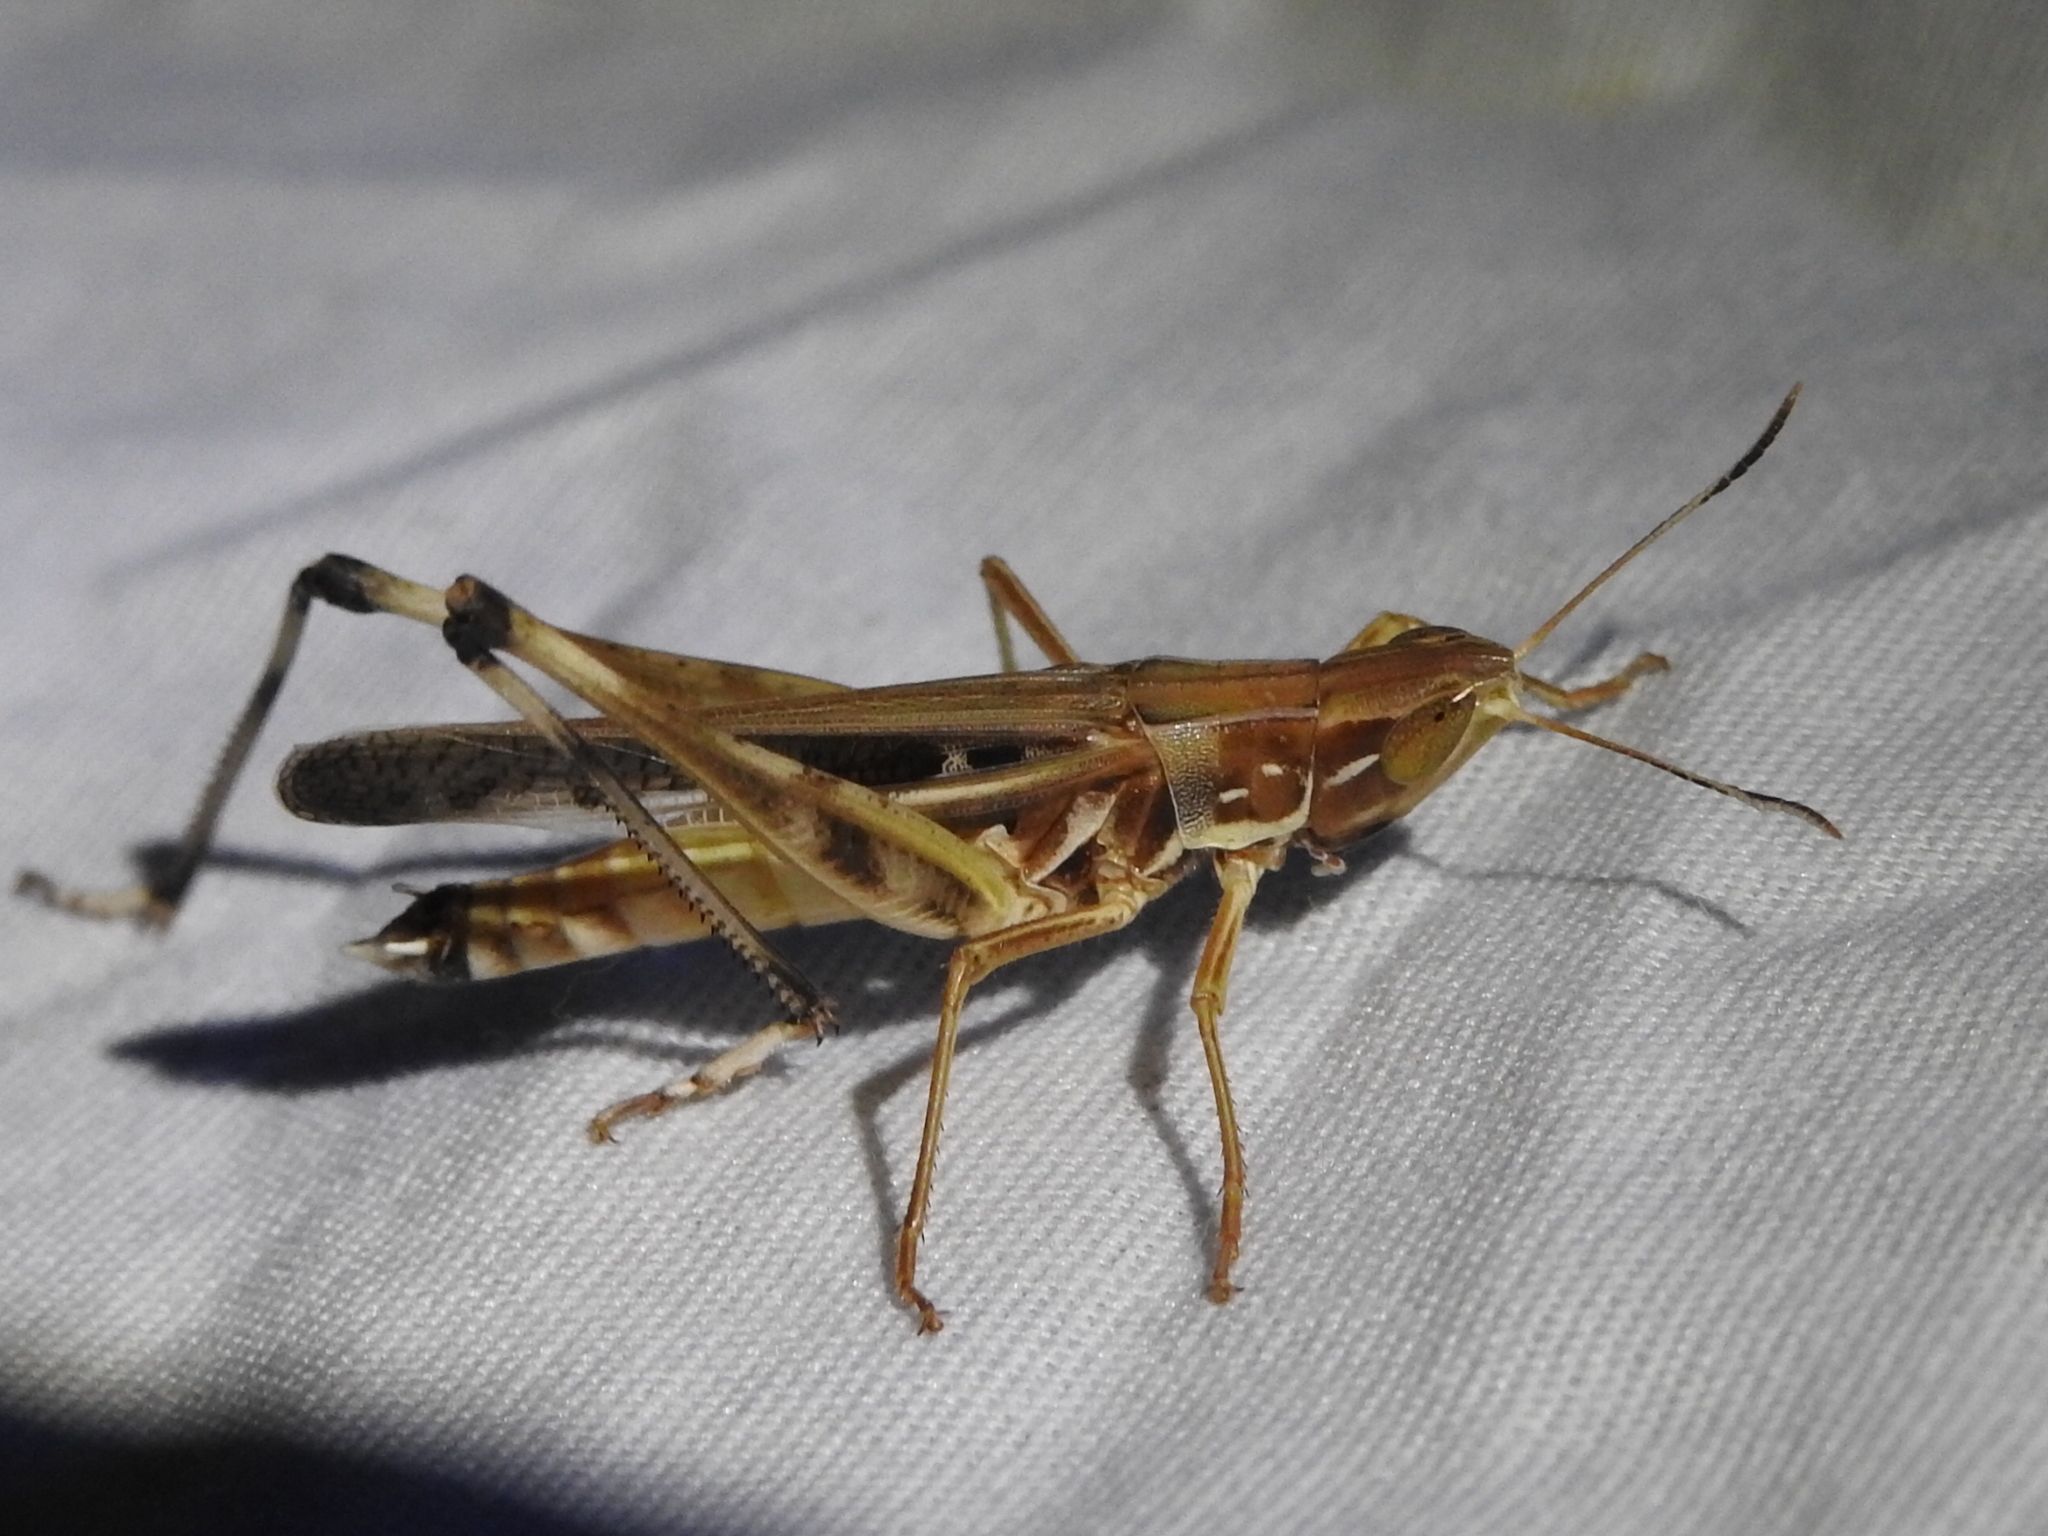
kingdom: Animalia
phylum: Arthropoda
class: Insecta
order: Orthoptera
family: Acrididae
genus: Syrbula
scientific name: Syrbula admirabilis
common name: Handsome grasshopper
